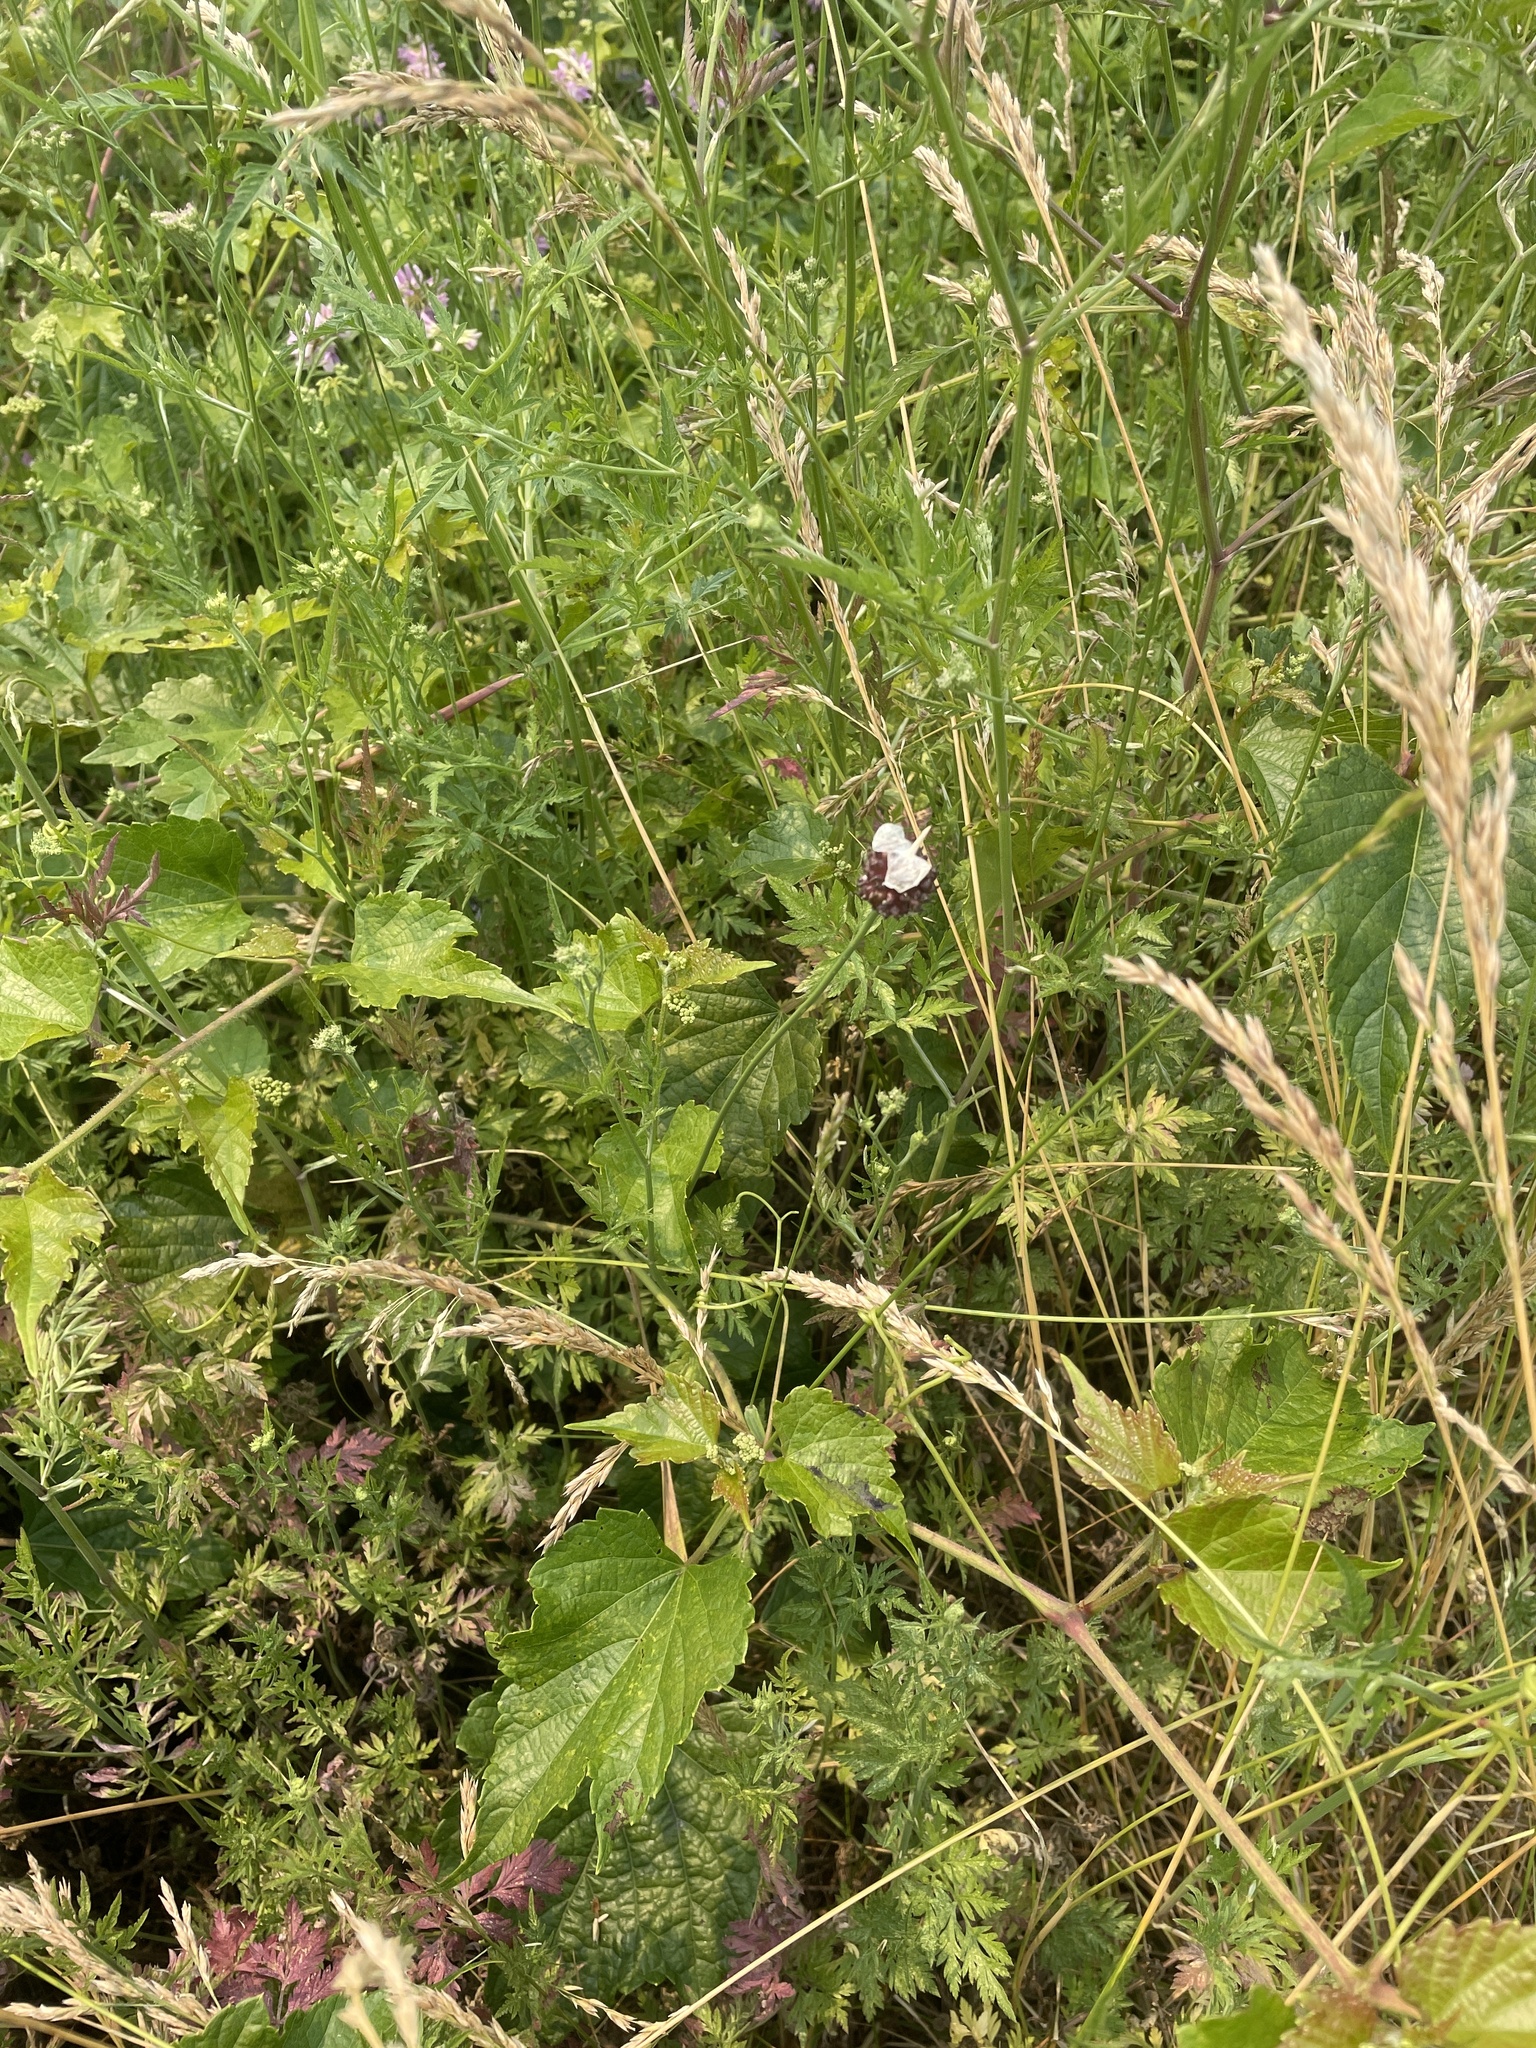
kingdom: Plantae
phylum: Tracheophyta
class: Liliopsida
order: Asparagales
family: Amaryllidaceae
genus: Allium
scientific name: Allium vineale
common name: Crow garlic
